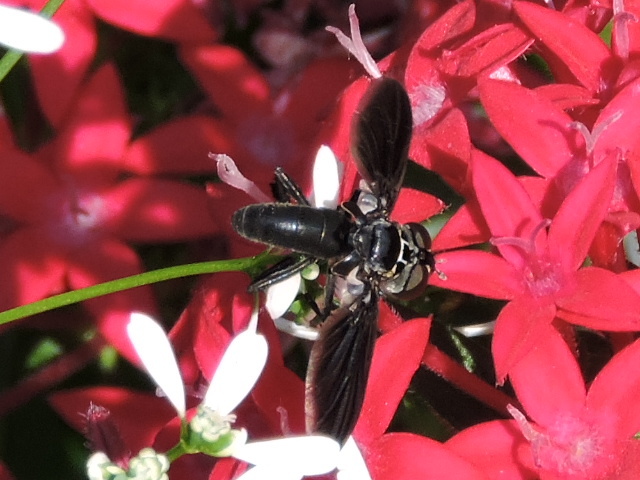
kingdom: Animalia
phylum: Arthropoda
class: Insecta
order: Diptera
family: Tachinidae
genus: Trichopoda
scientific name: Trichopoda lanipes
